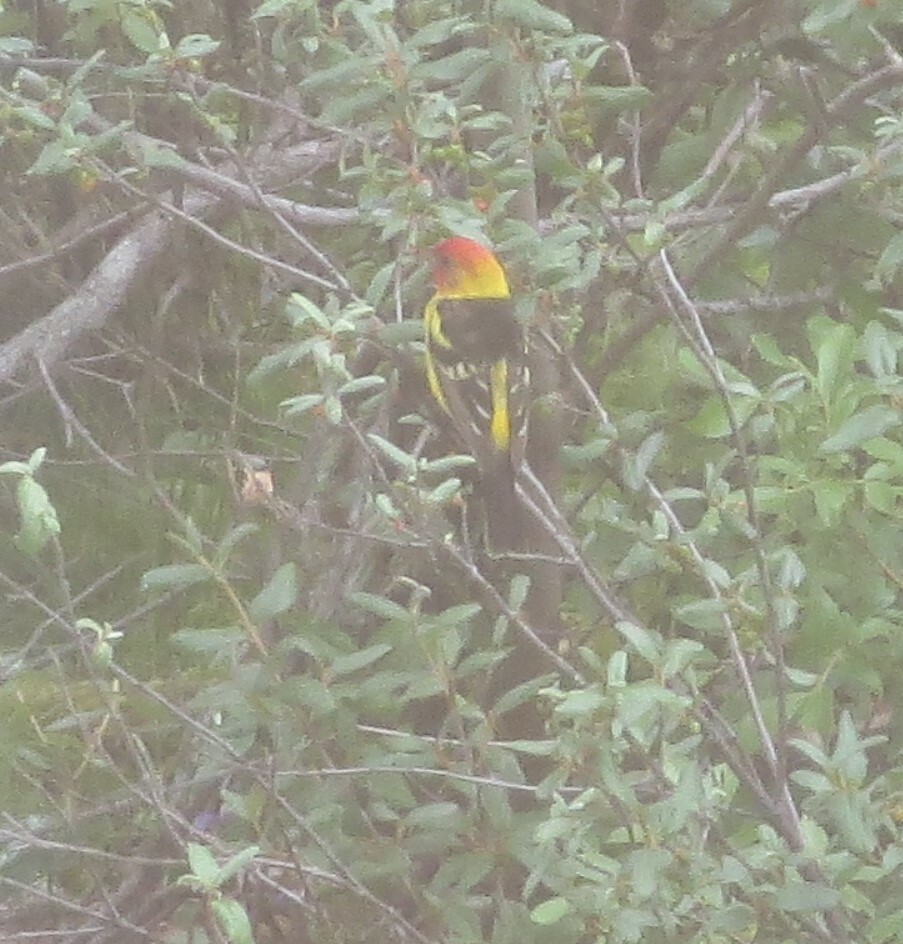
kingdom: Animalia
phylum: Chordata
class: Aves
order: Passeriformes
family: Cardinalidae
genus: Piranga
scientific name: Piranga ludoviciana
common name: Western tanager
